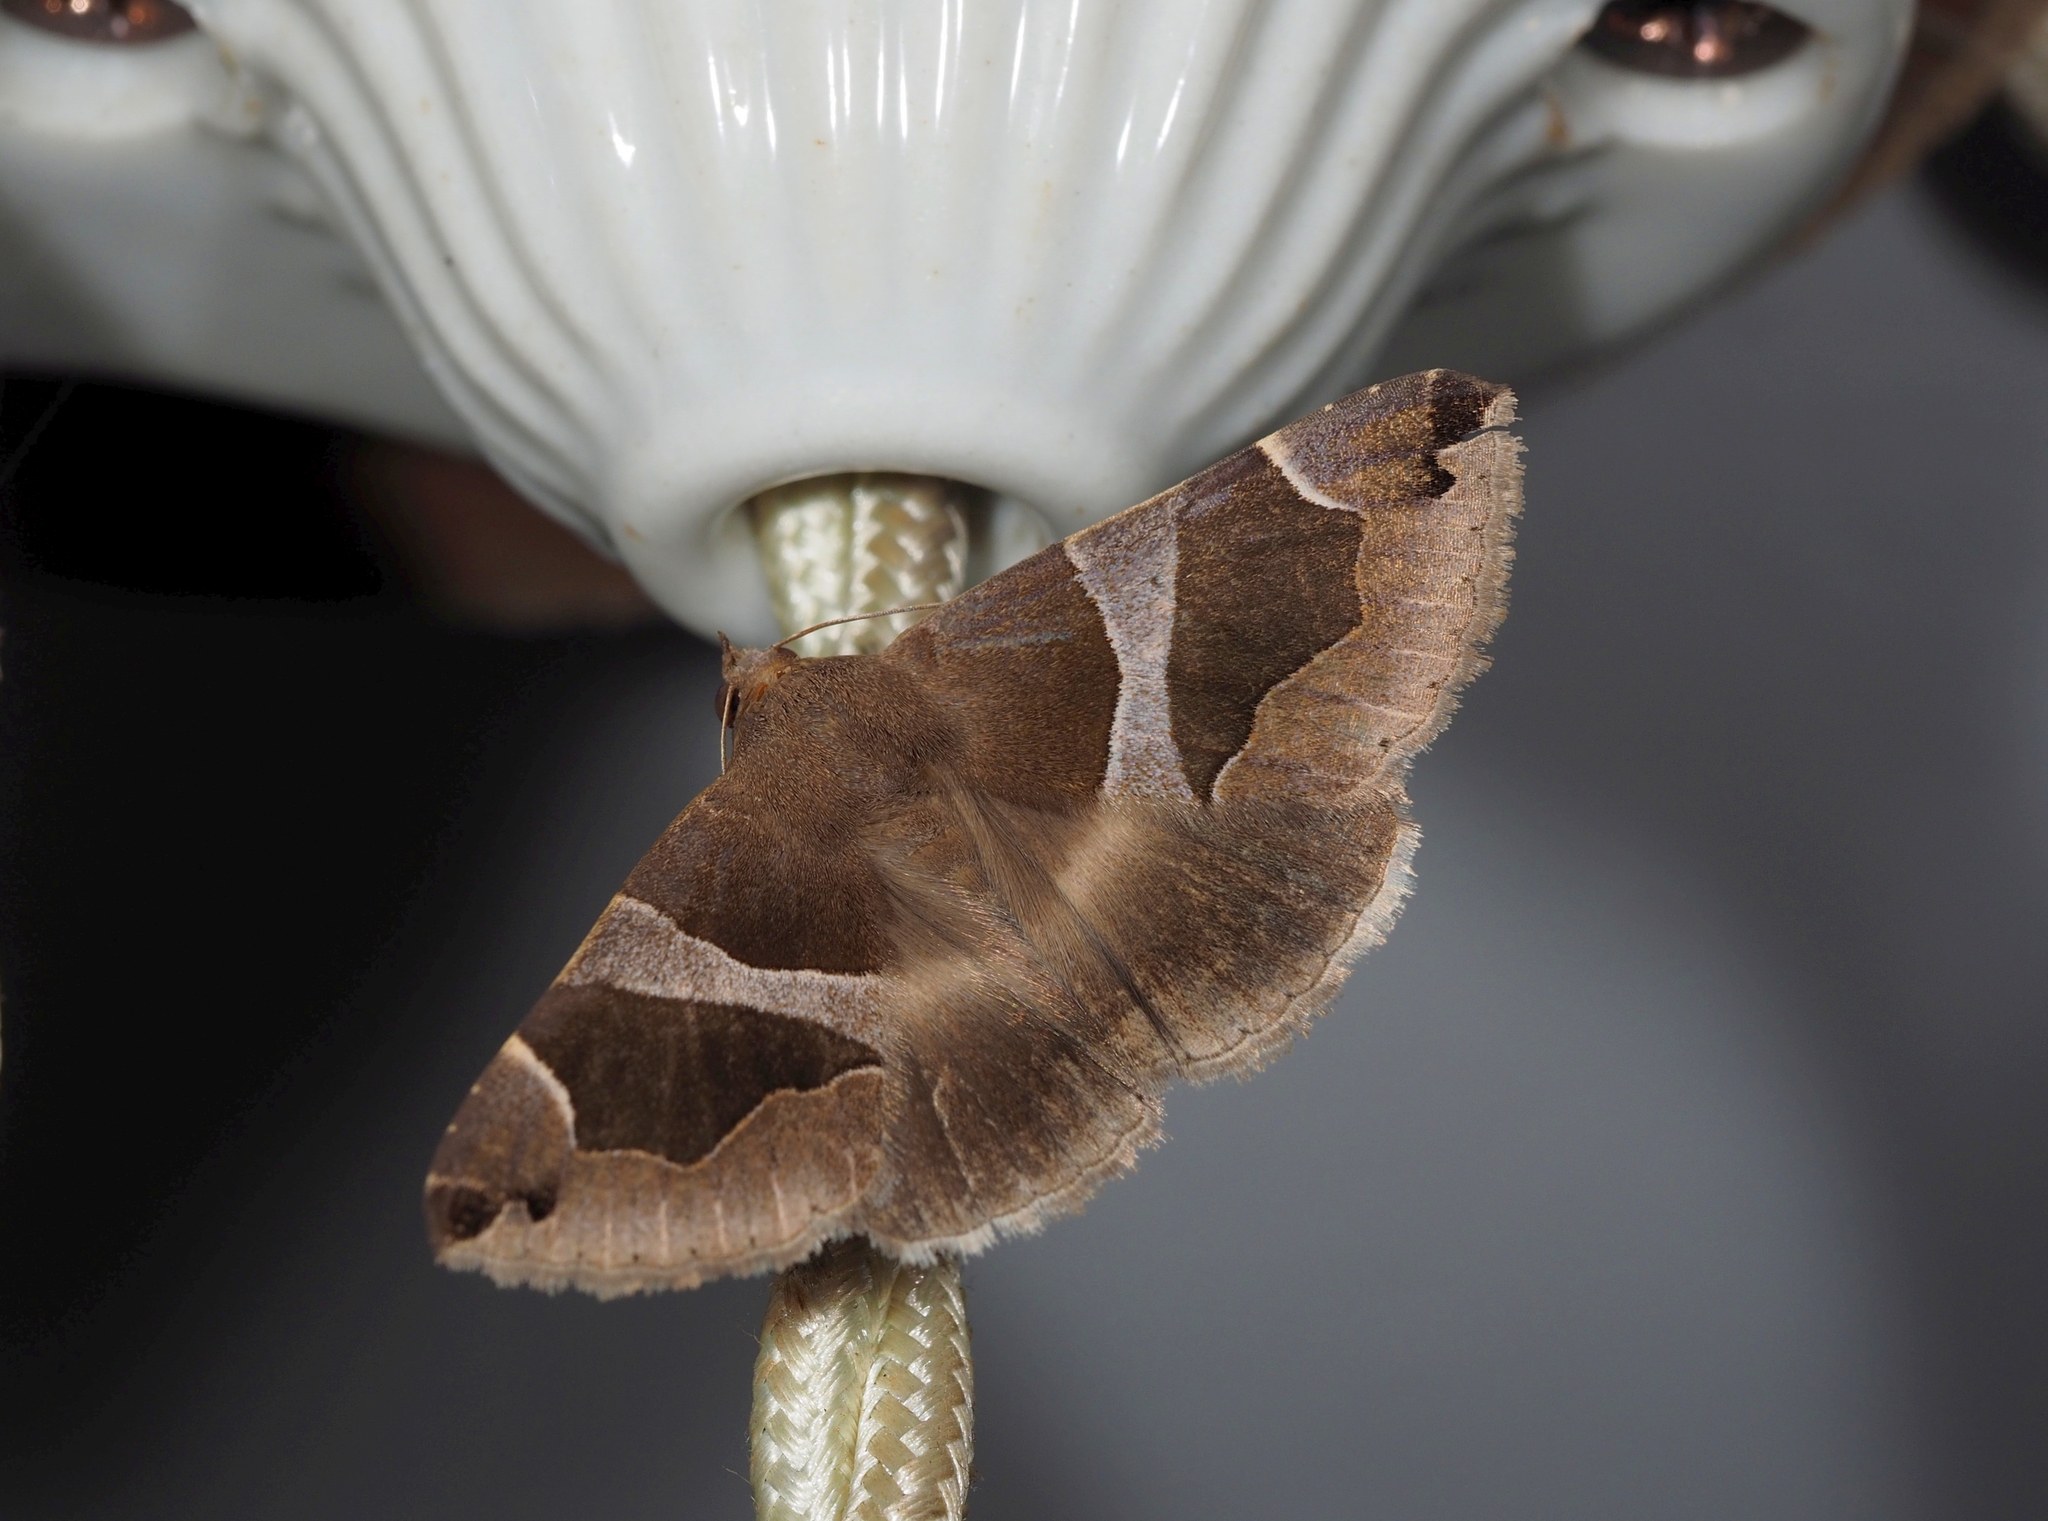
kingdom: Animalia
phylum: Arthropoda
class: Insecta
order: Lepidoptera
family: Erebidae
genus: Dysgonia
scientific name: Dysgonia algira
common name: Passenger
